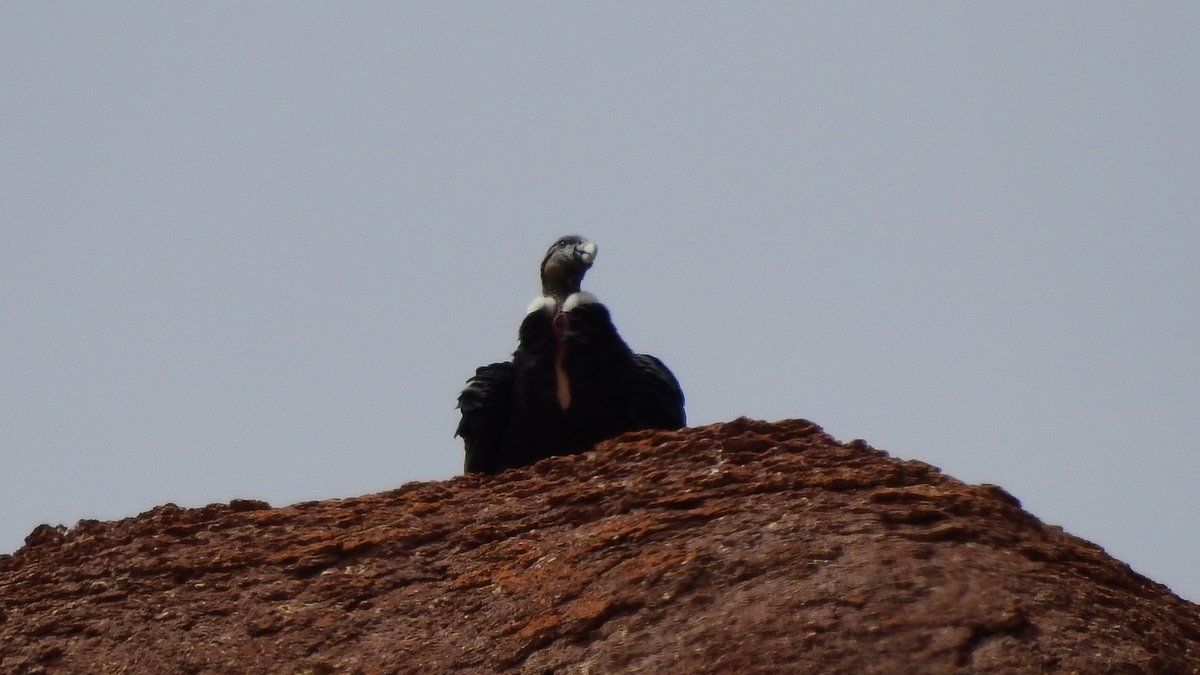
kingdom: Animalia
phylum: Chordata
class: Aves
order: Accipitriformes
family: Cathartidae
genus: Vultur
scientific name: Vultur gryphus
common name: Andean condor
